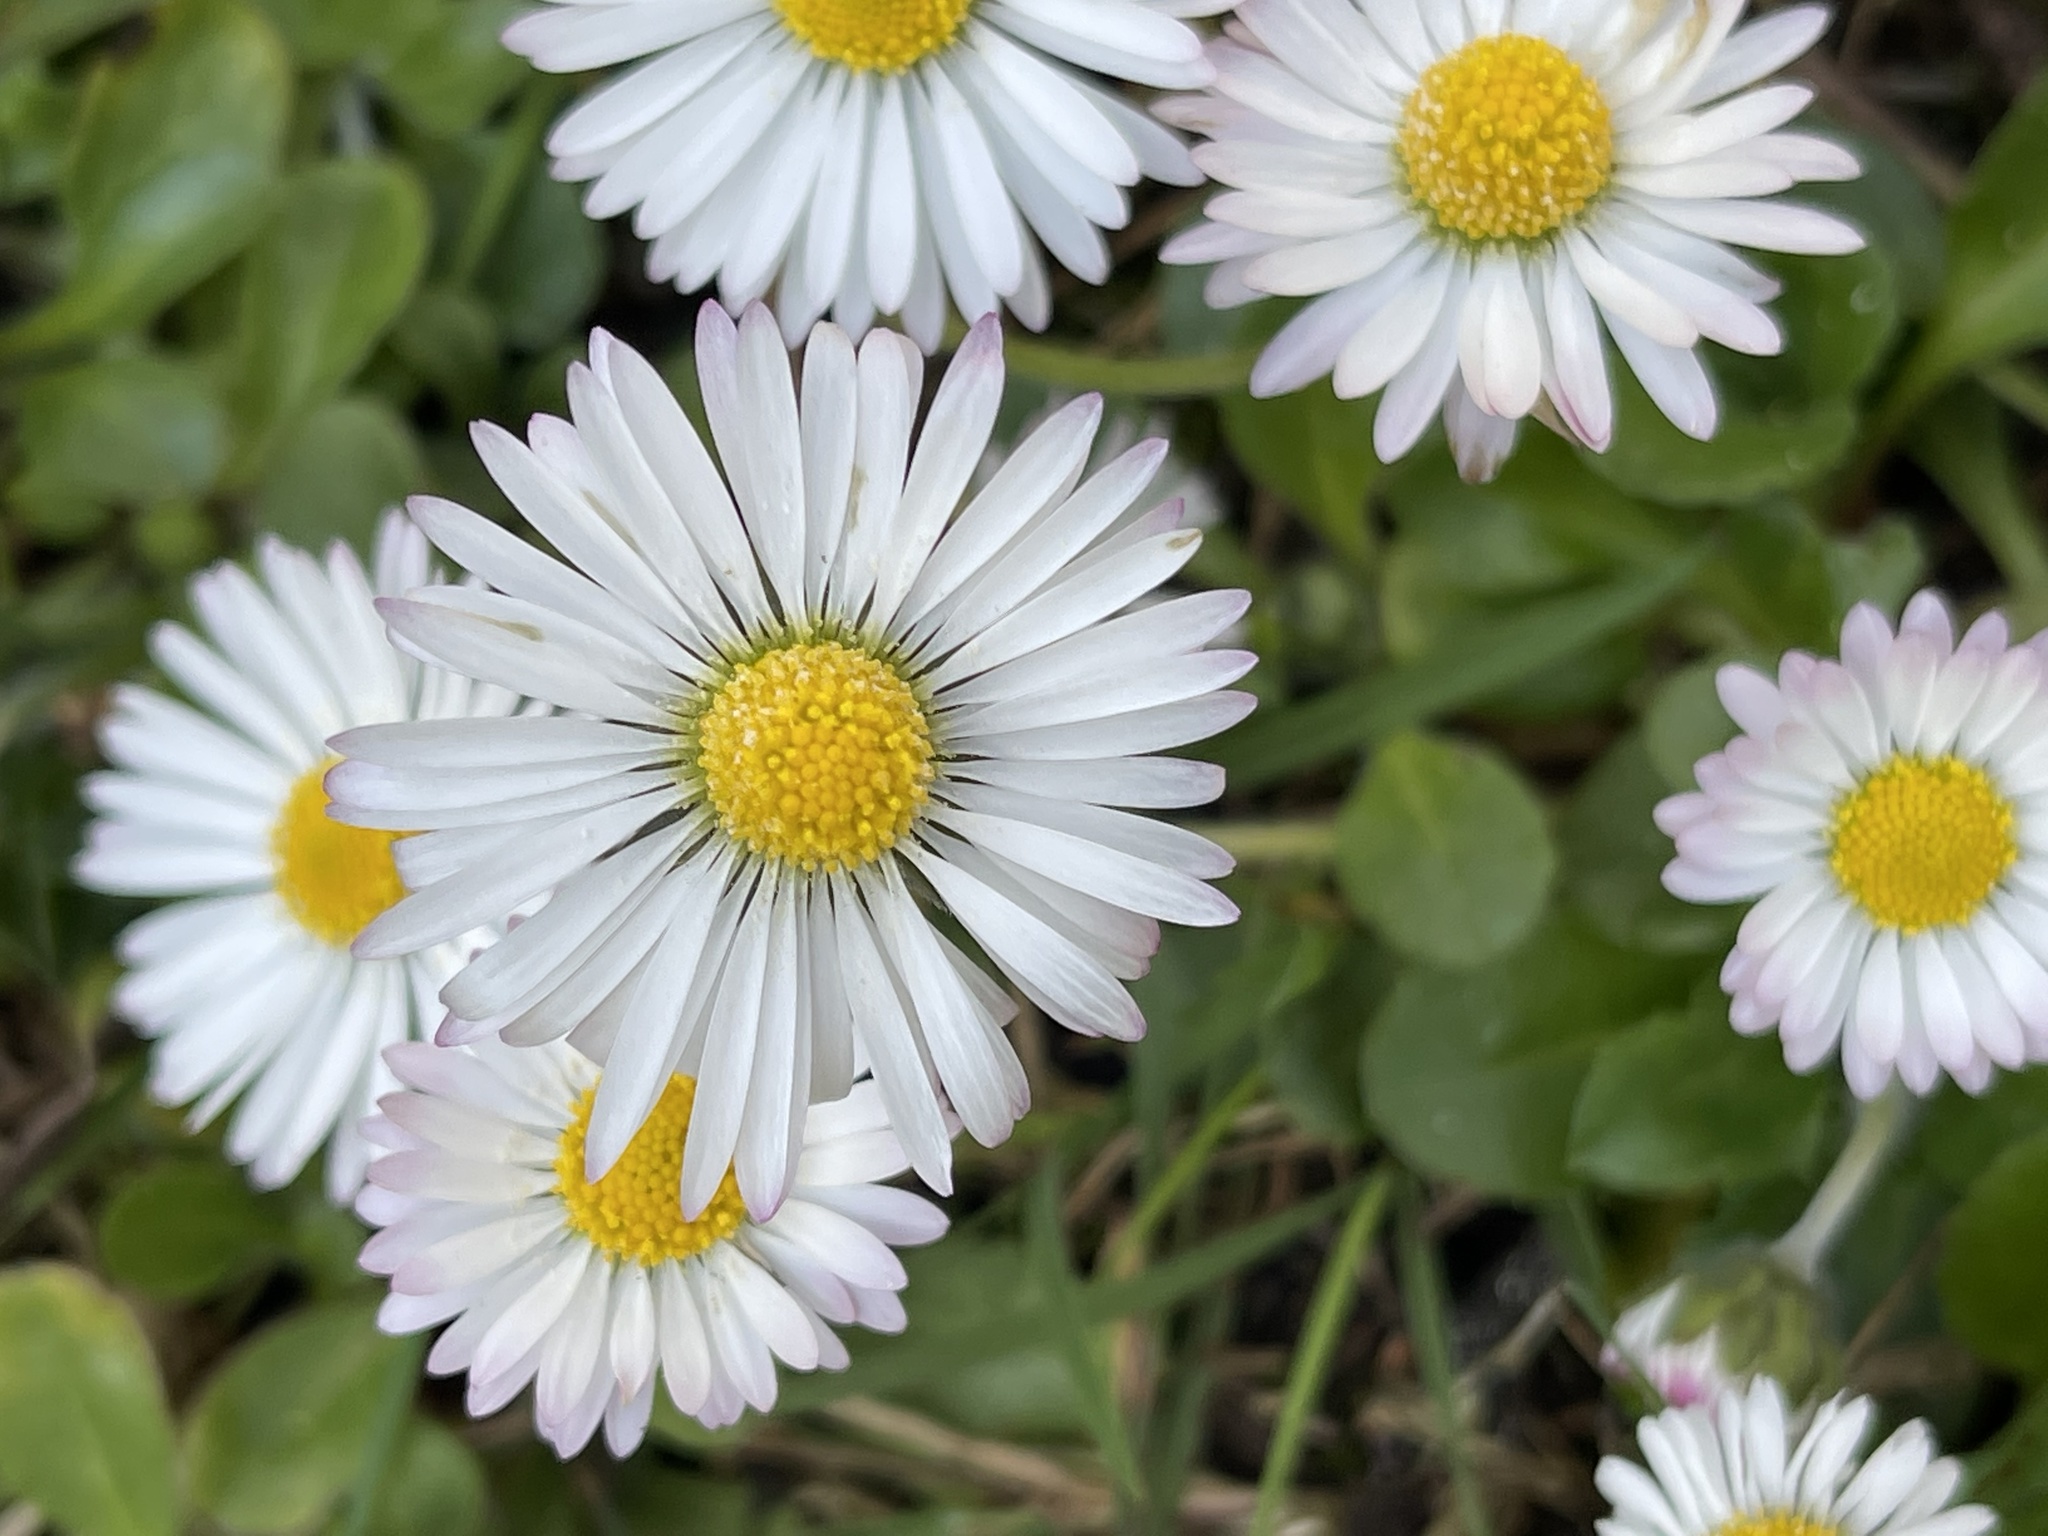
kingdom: Plantae
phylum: Tracheophyta
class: Magnoliopsida
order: Asterales
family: Asteraceae
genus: Bellis
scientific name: Bellis perennis
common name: Lawndaisy
